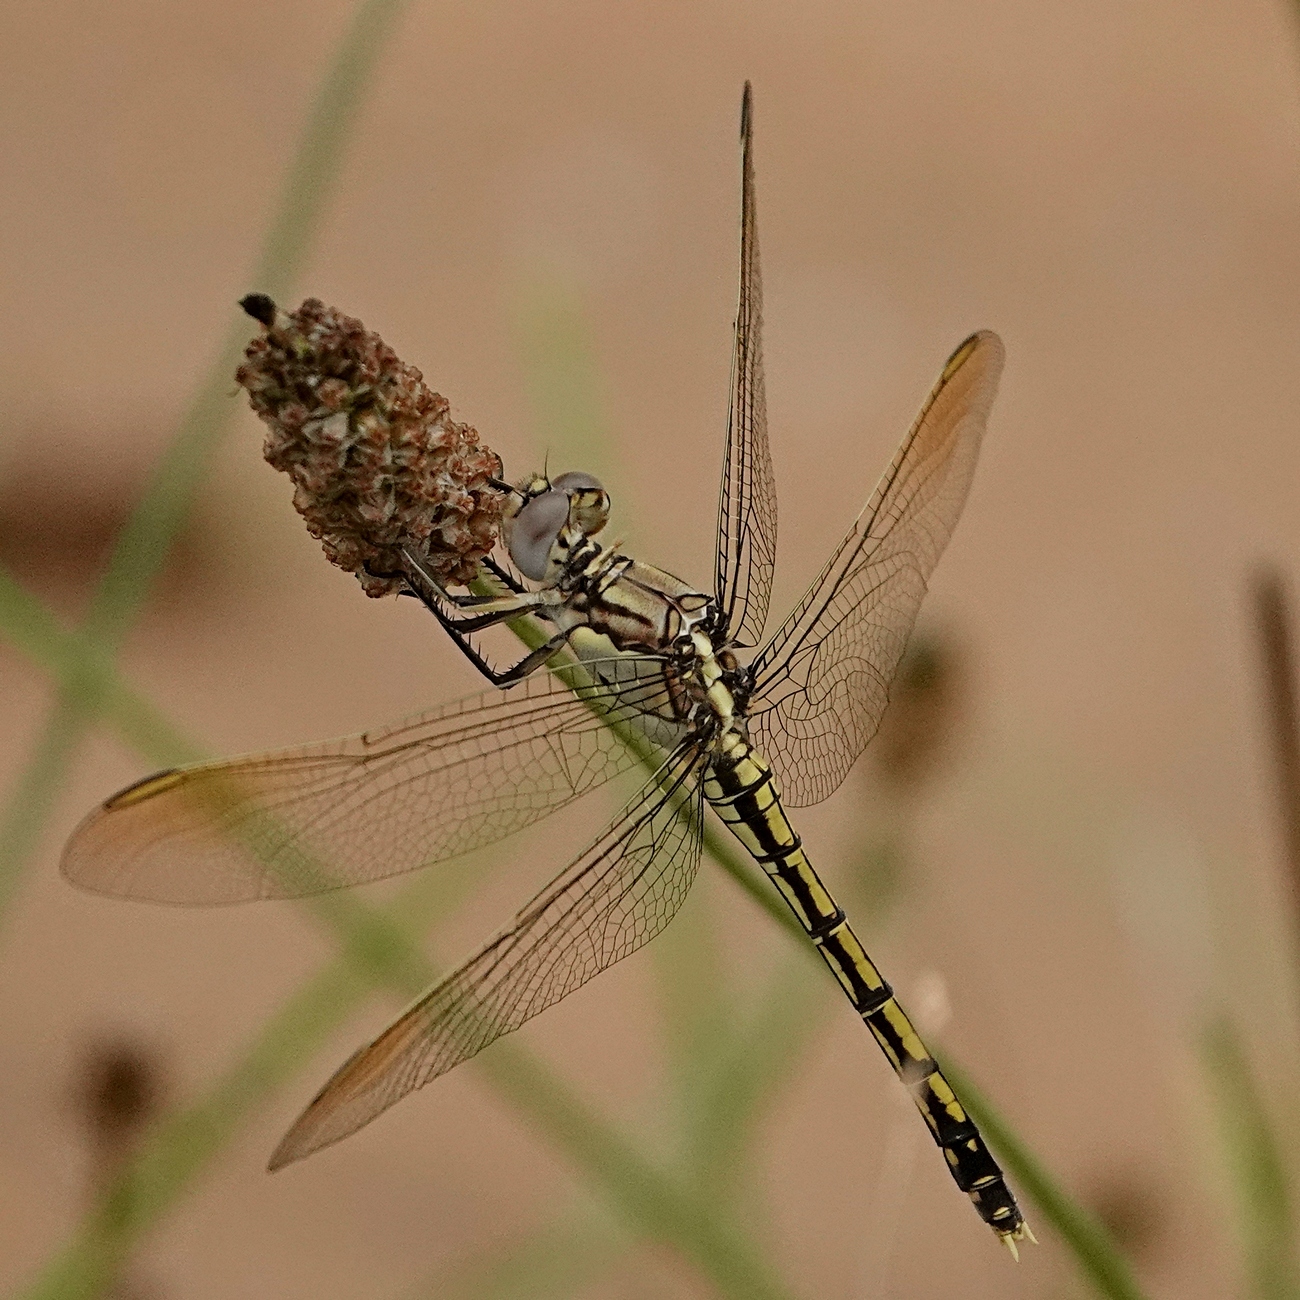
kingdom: Animalia
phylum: Arthropoda
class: Insecta
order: Odonata
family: Libellulidae
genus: Orthetrum
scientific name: Orthetrum caledonicum
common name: Blue skimmer
